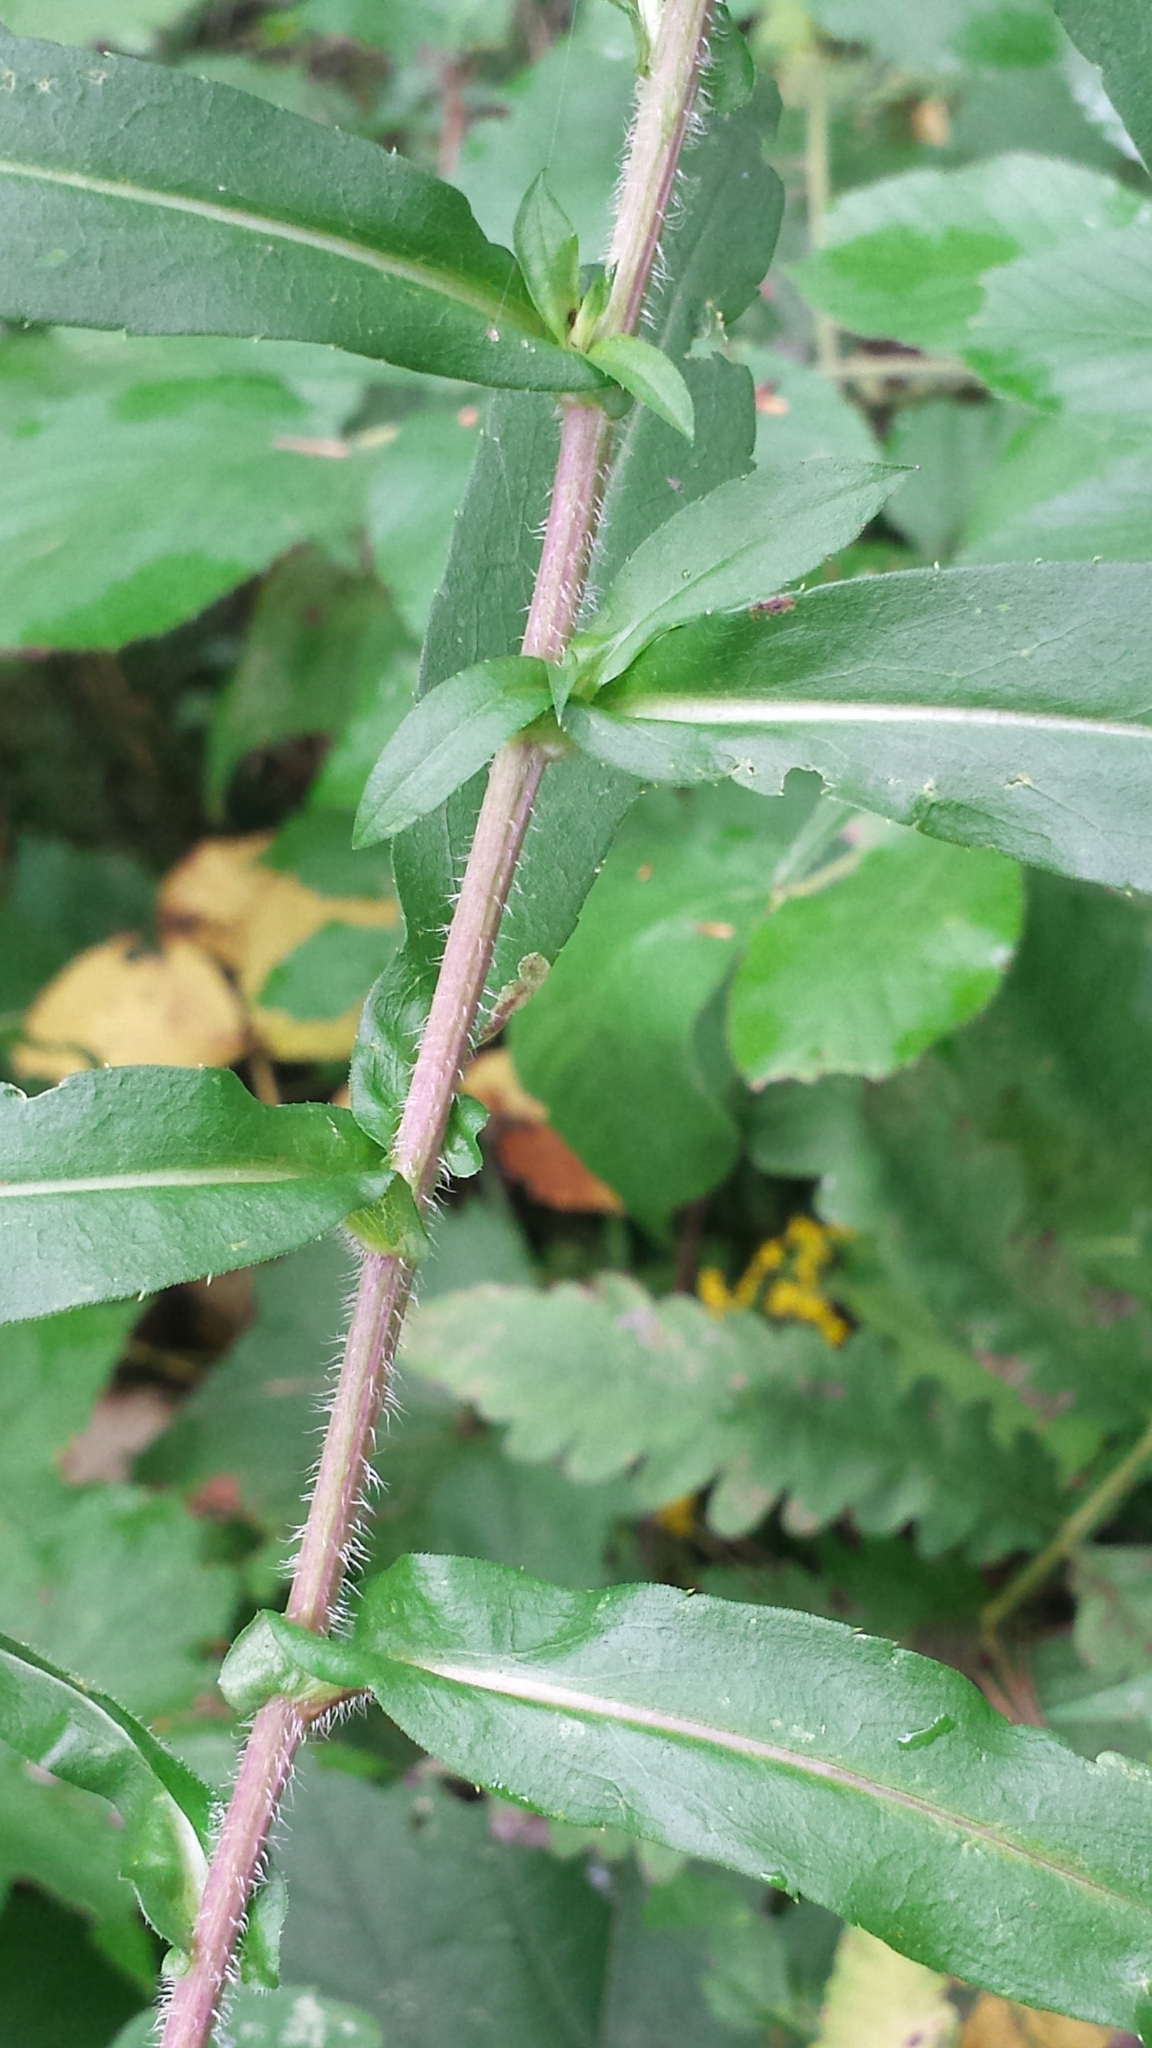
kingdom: Plantae
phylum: Tracheophyta
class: Magnoliopsida
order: Asterales
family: Asteraceae
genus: Symphyotrichum
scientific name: Symphyotrichum puniceum
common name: Bog aster
